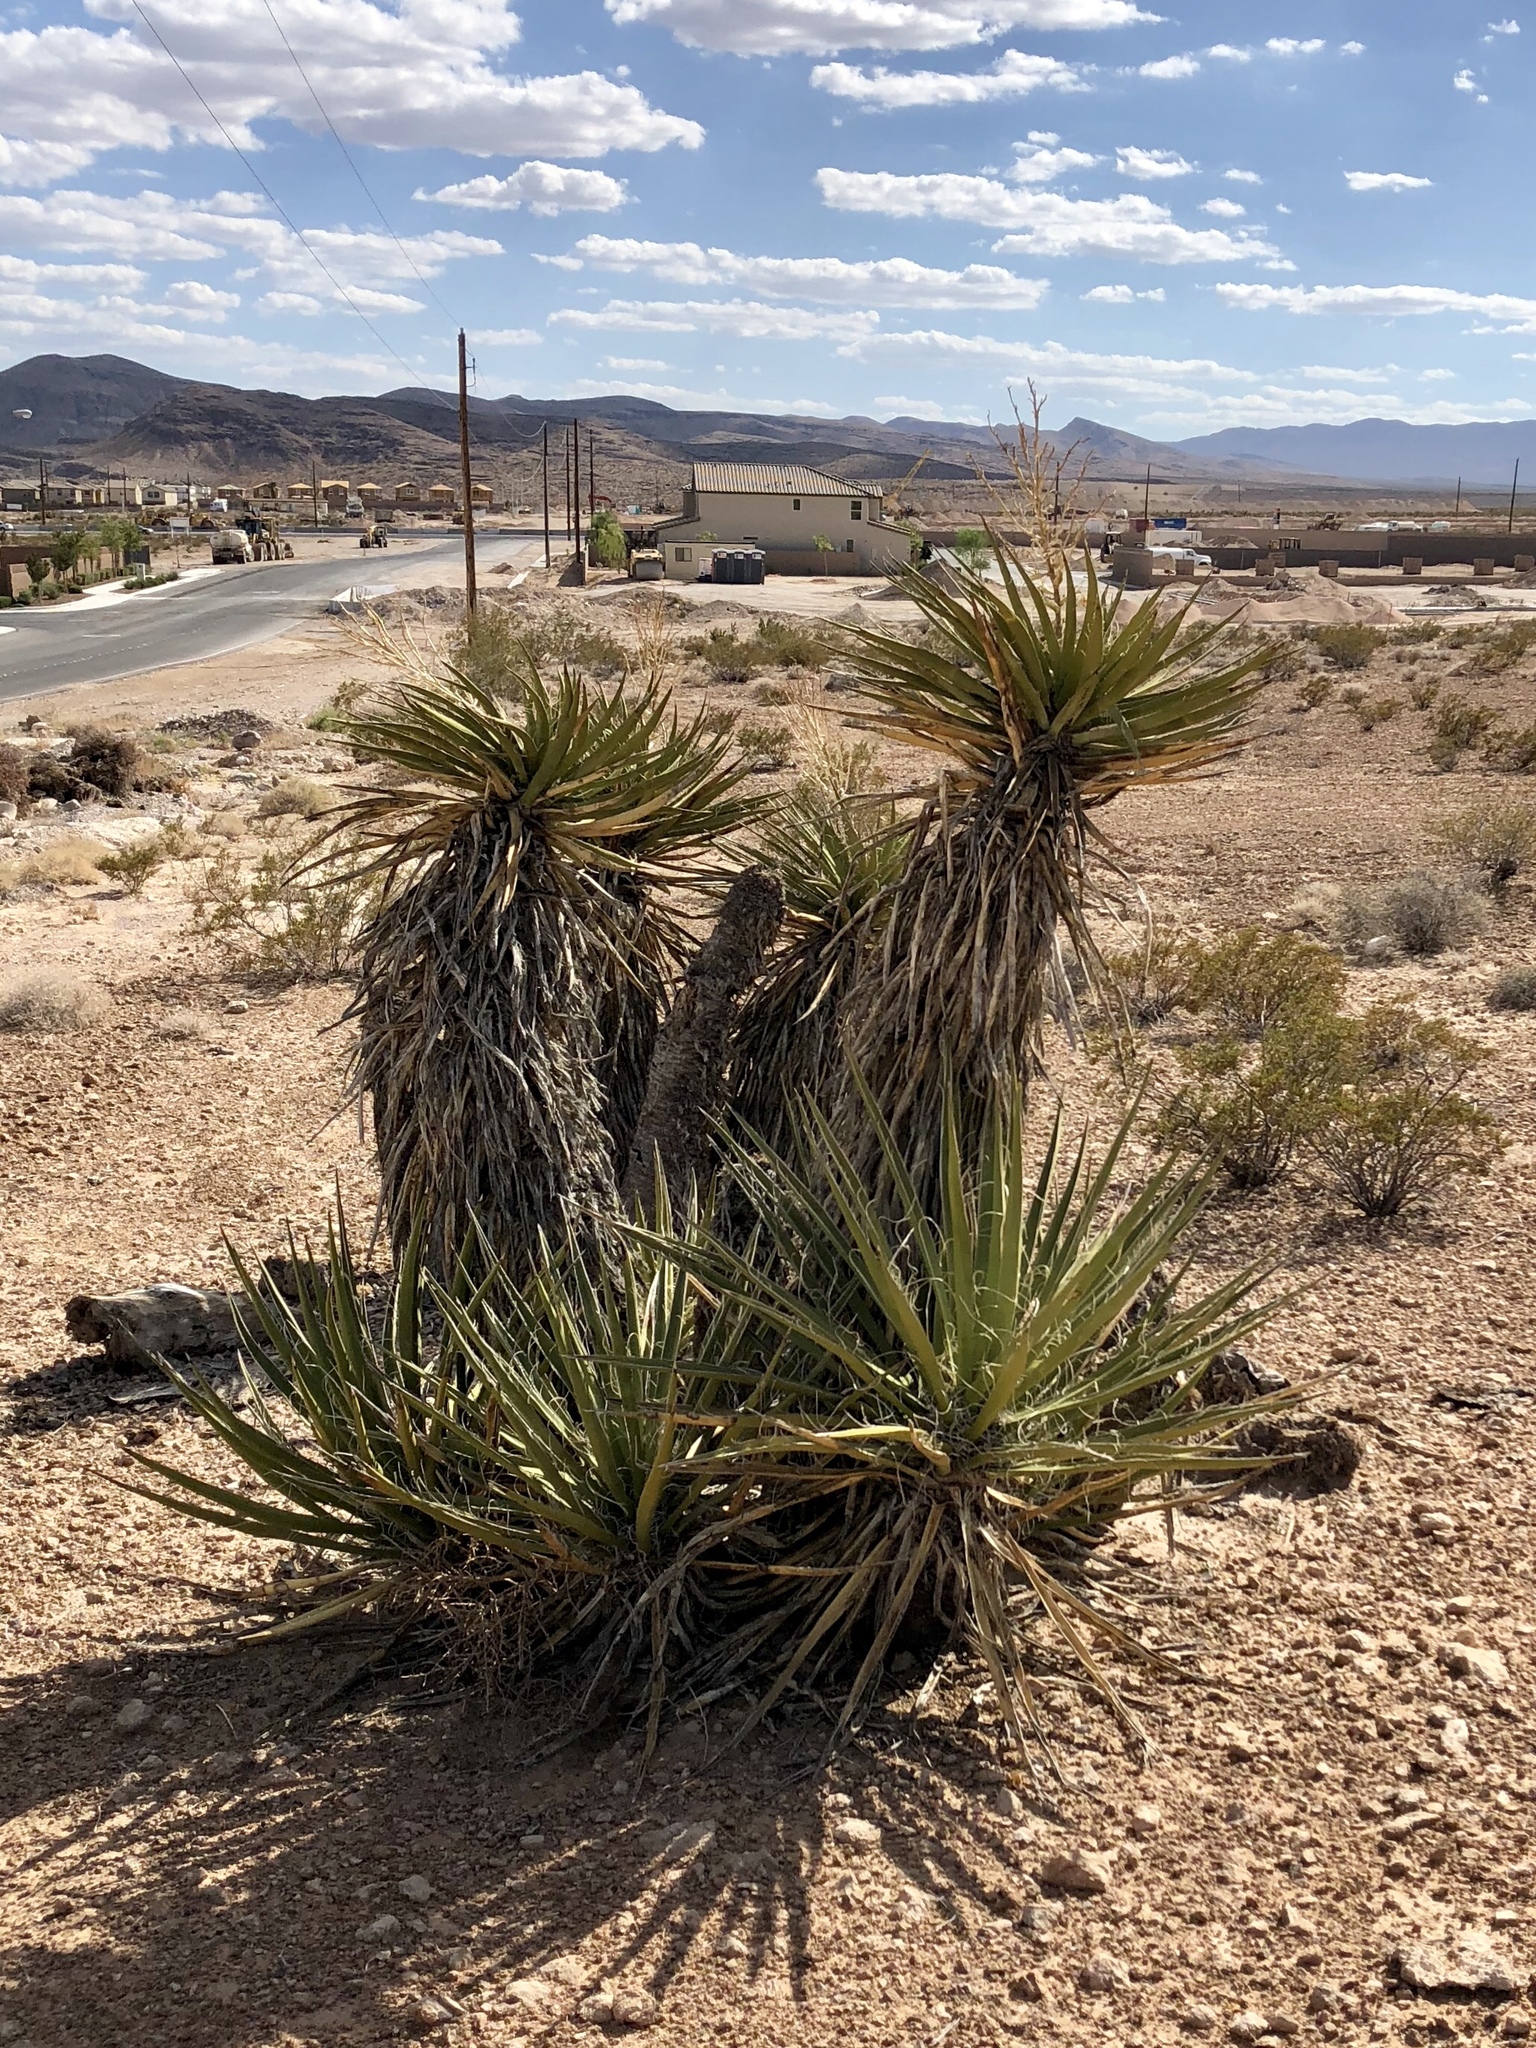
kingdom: Plantae
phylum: Tracheophyta
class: Liliopsida
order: Asparagales
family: Asparagaceae
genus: Yucca
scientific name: Yucca schidigera
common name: Mojave yucca
